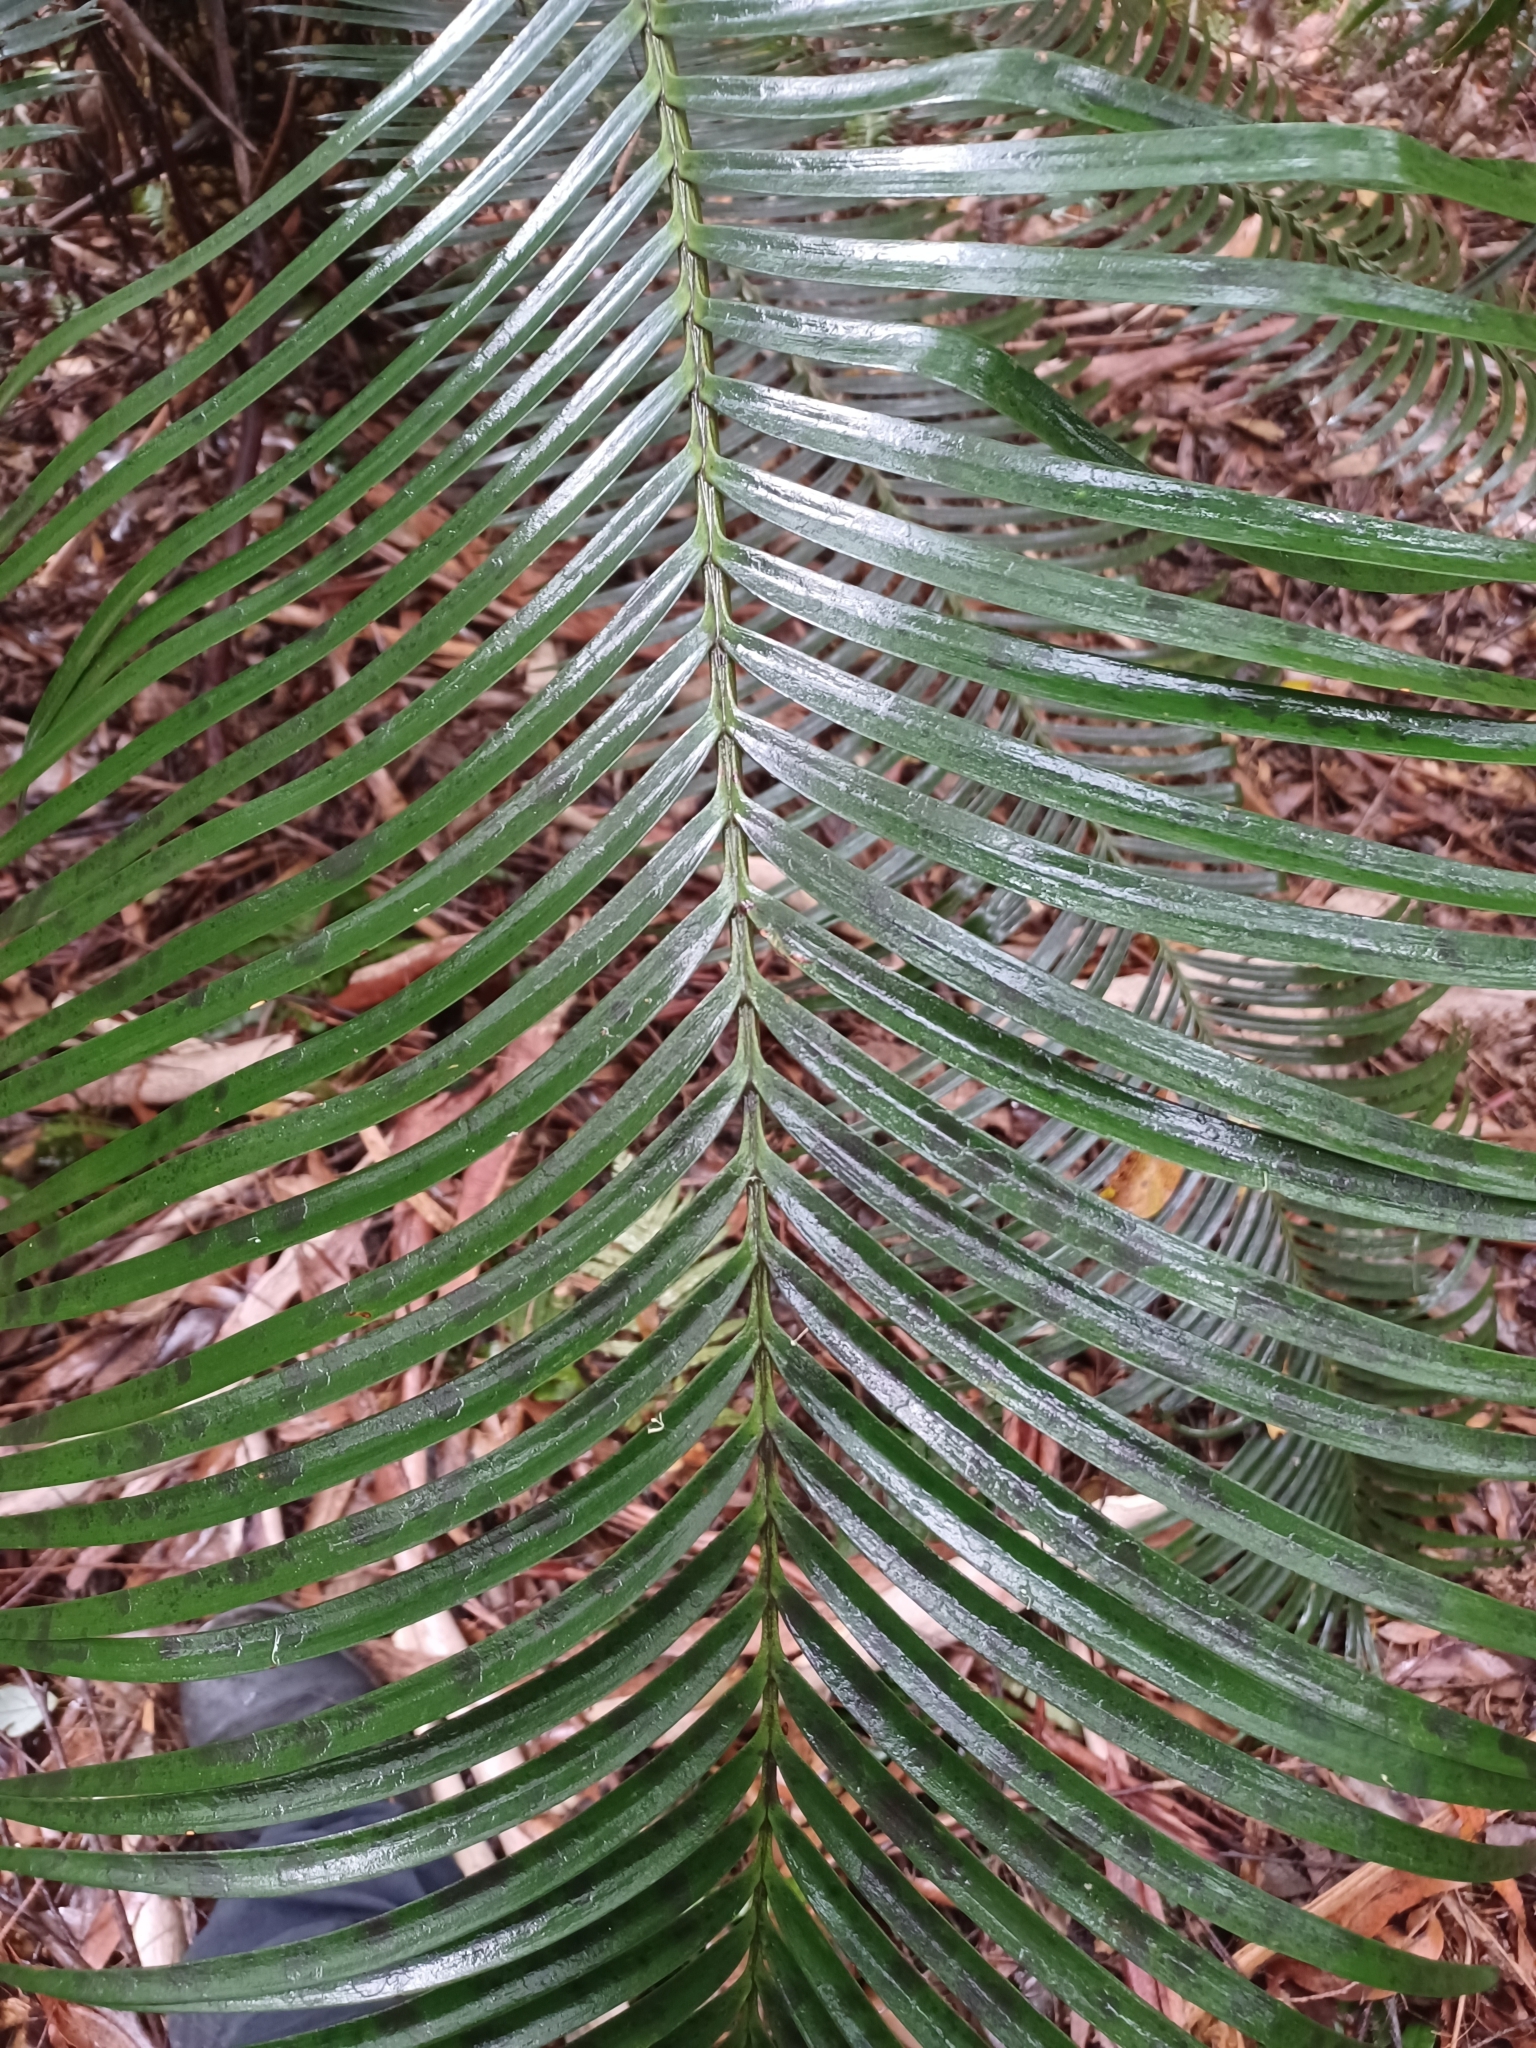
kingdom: Plantae
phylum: Tracheophyta
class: Cycadopsida
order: Cycadales
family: Zamiaceae
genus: Lepidozamia
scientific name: Lepidozamia peroffskyana
